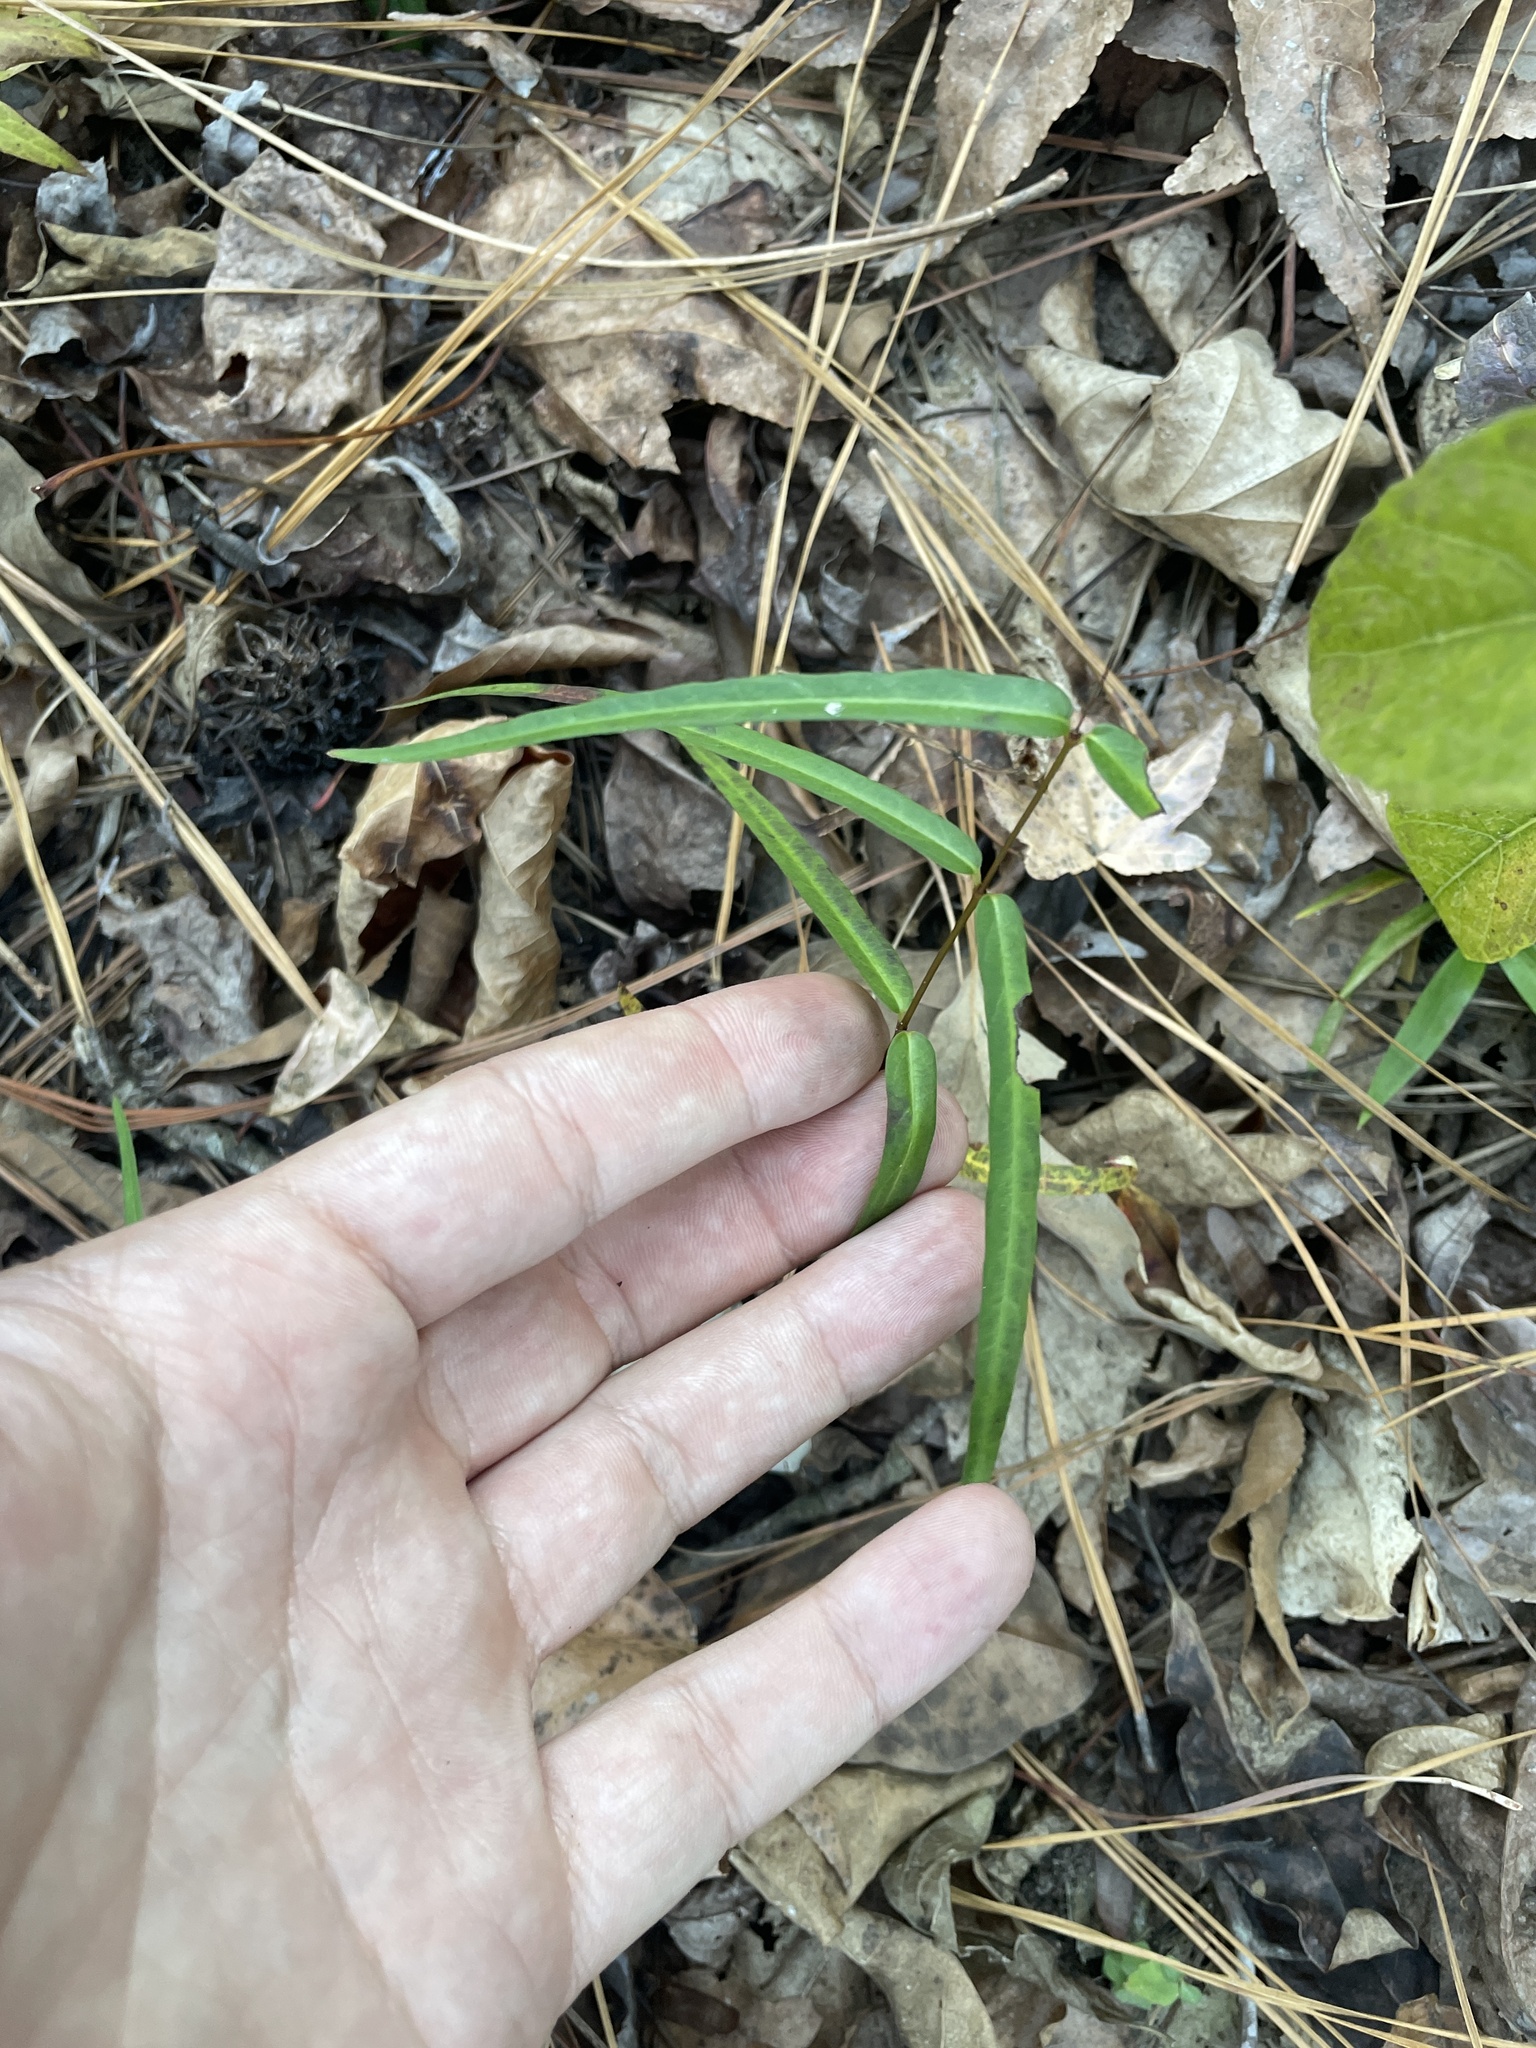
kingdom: Plantae
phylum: Tracheophyta
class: Magnoliopsida
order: Gentianales
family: Apocynaceae
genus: Thyrsanthella
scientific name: Thyrsanthella difformis
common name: Climbing dogbane
